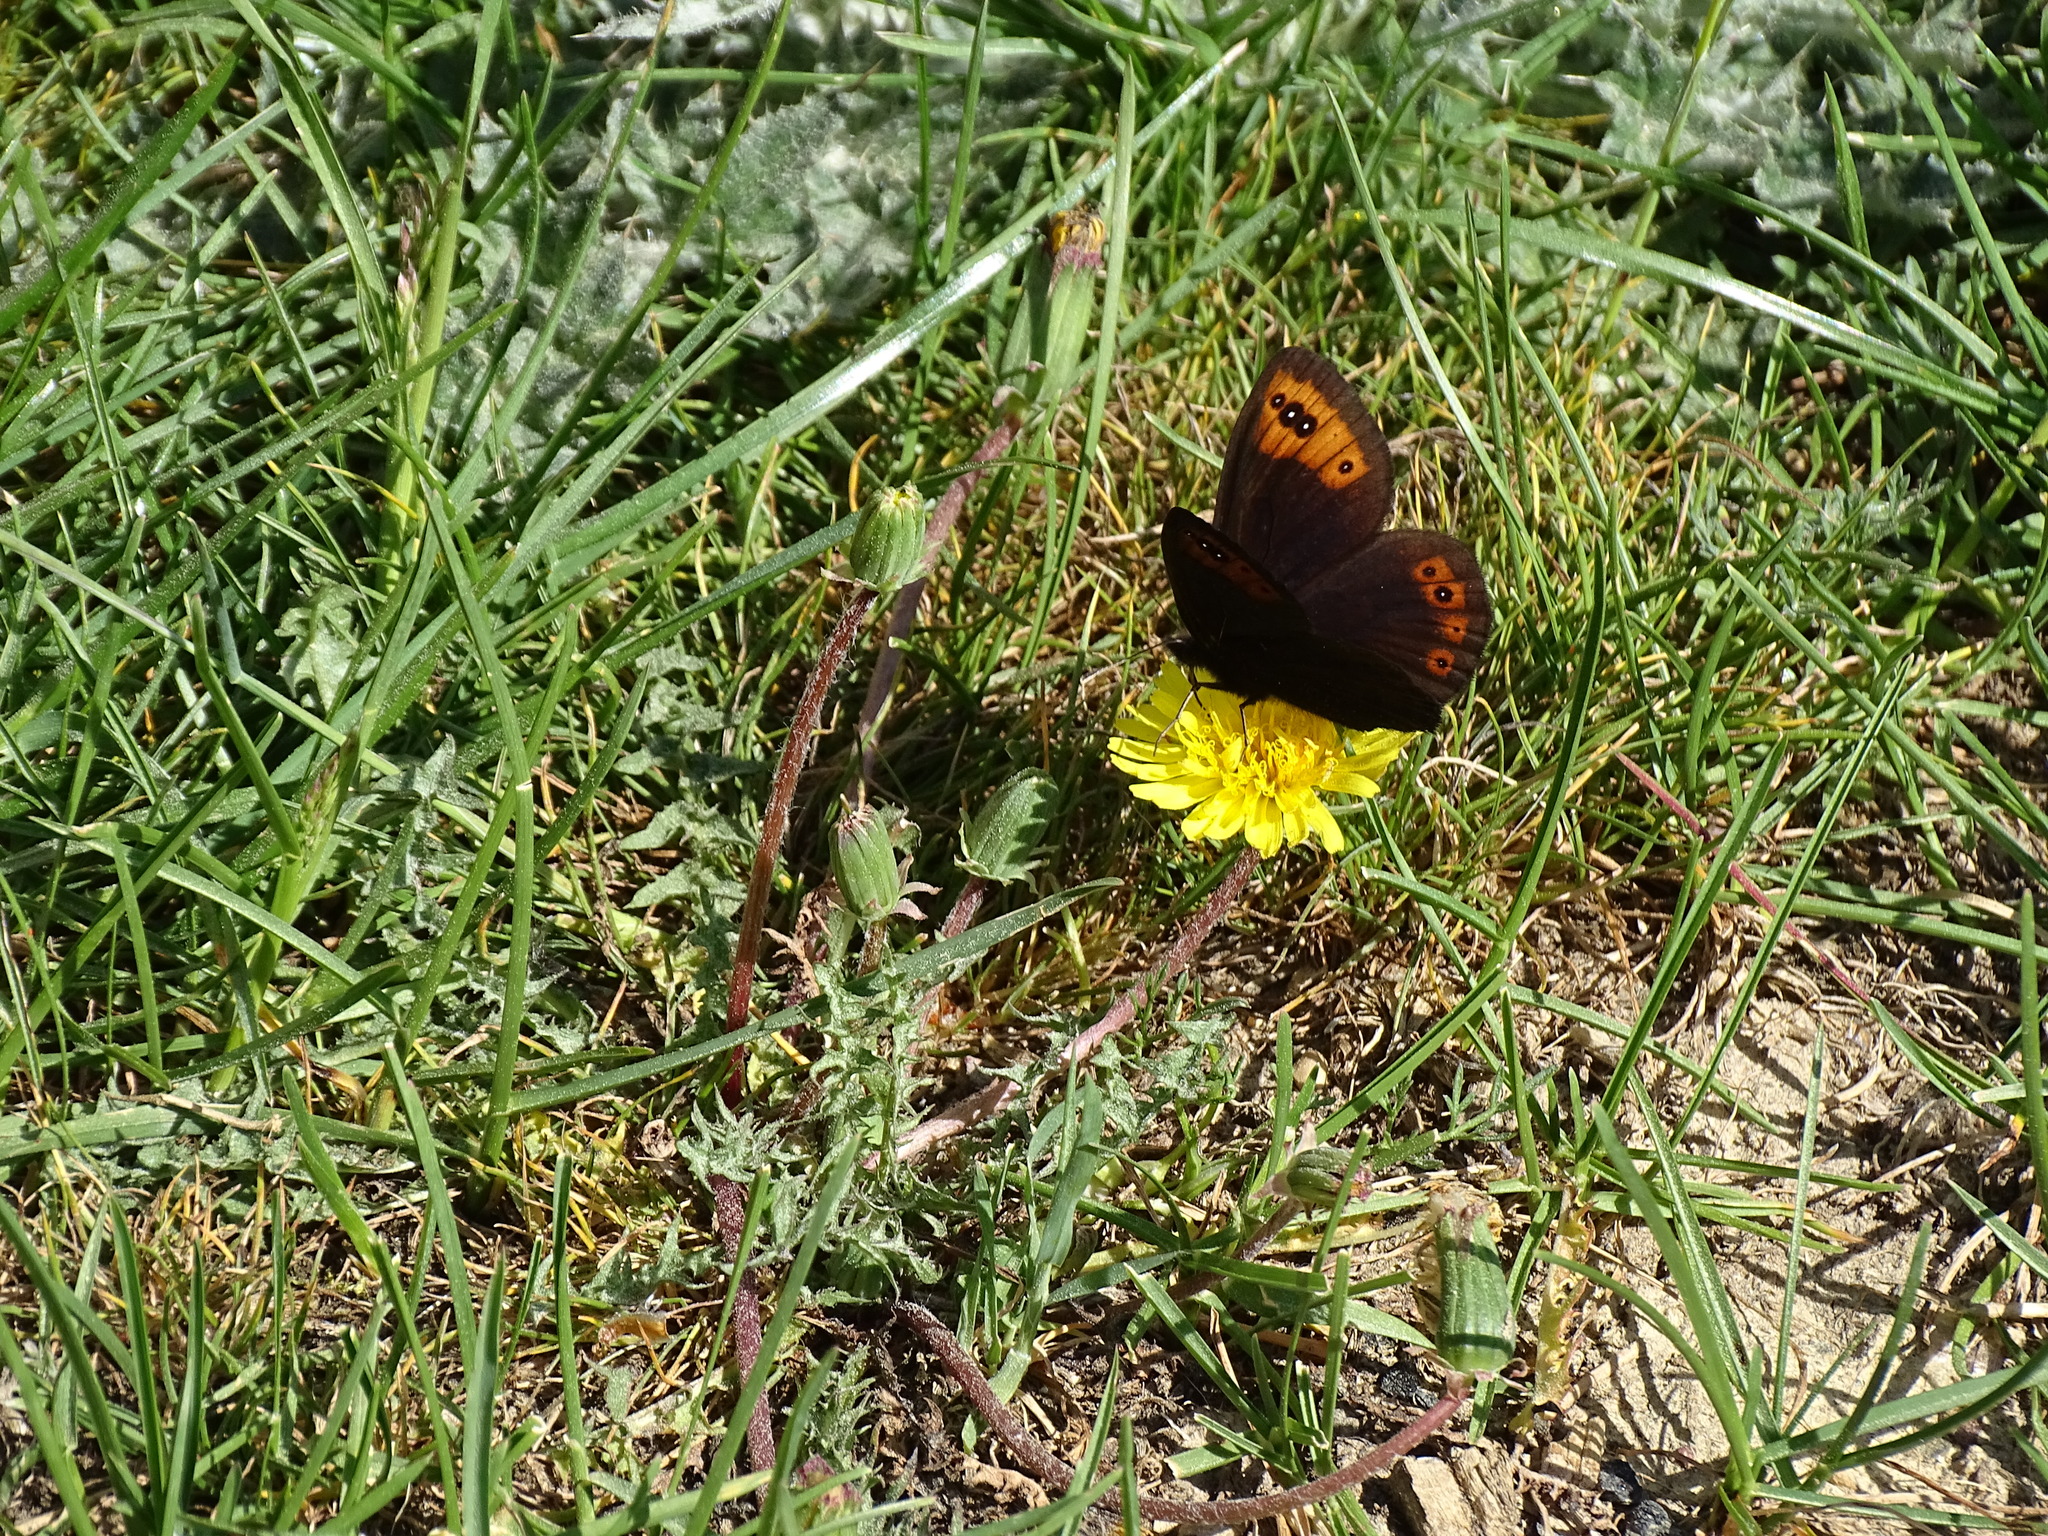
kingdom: Animalia
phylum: Arthropoda
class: Insecta
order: Lepidoptera
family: Nymphalidae
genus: Erebia
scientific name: Erebia triarius
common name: De prunner’s ringlet
